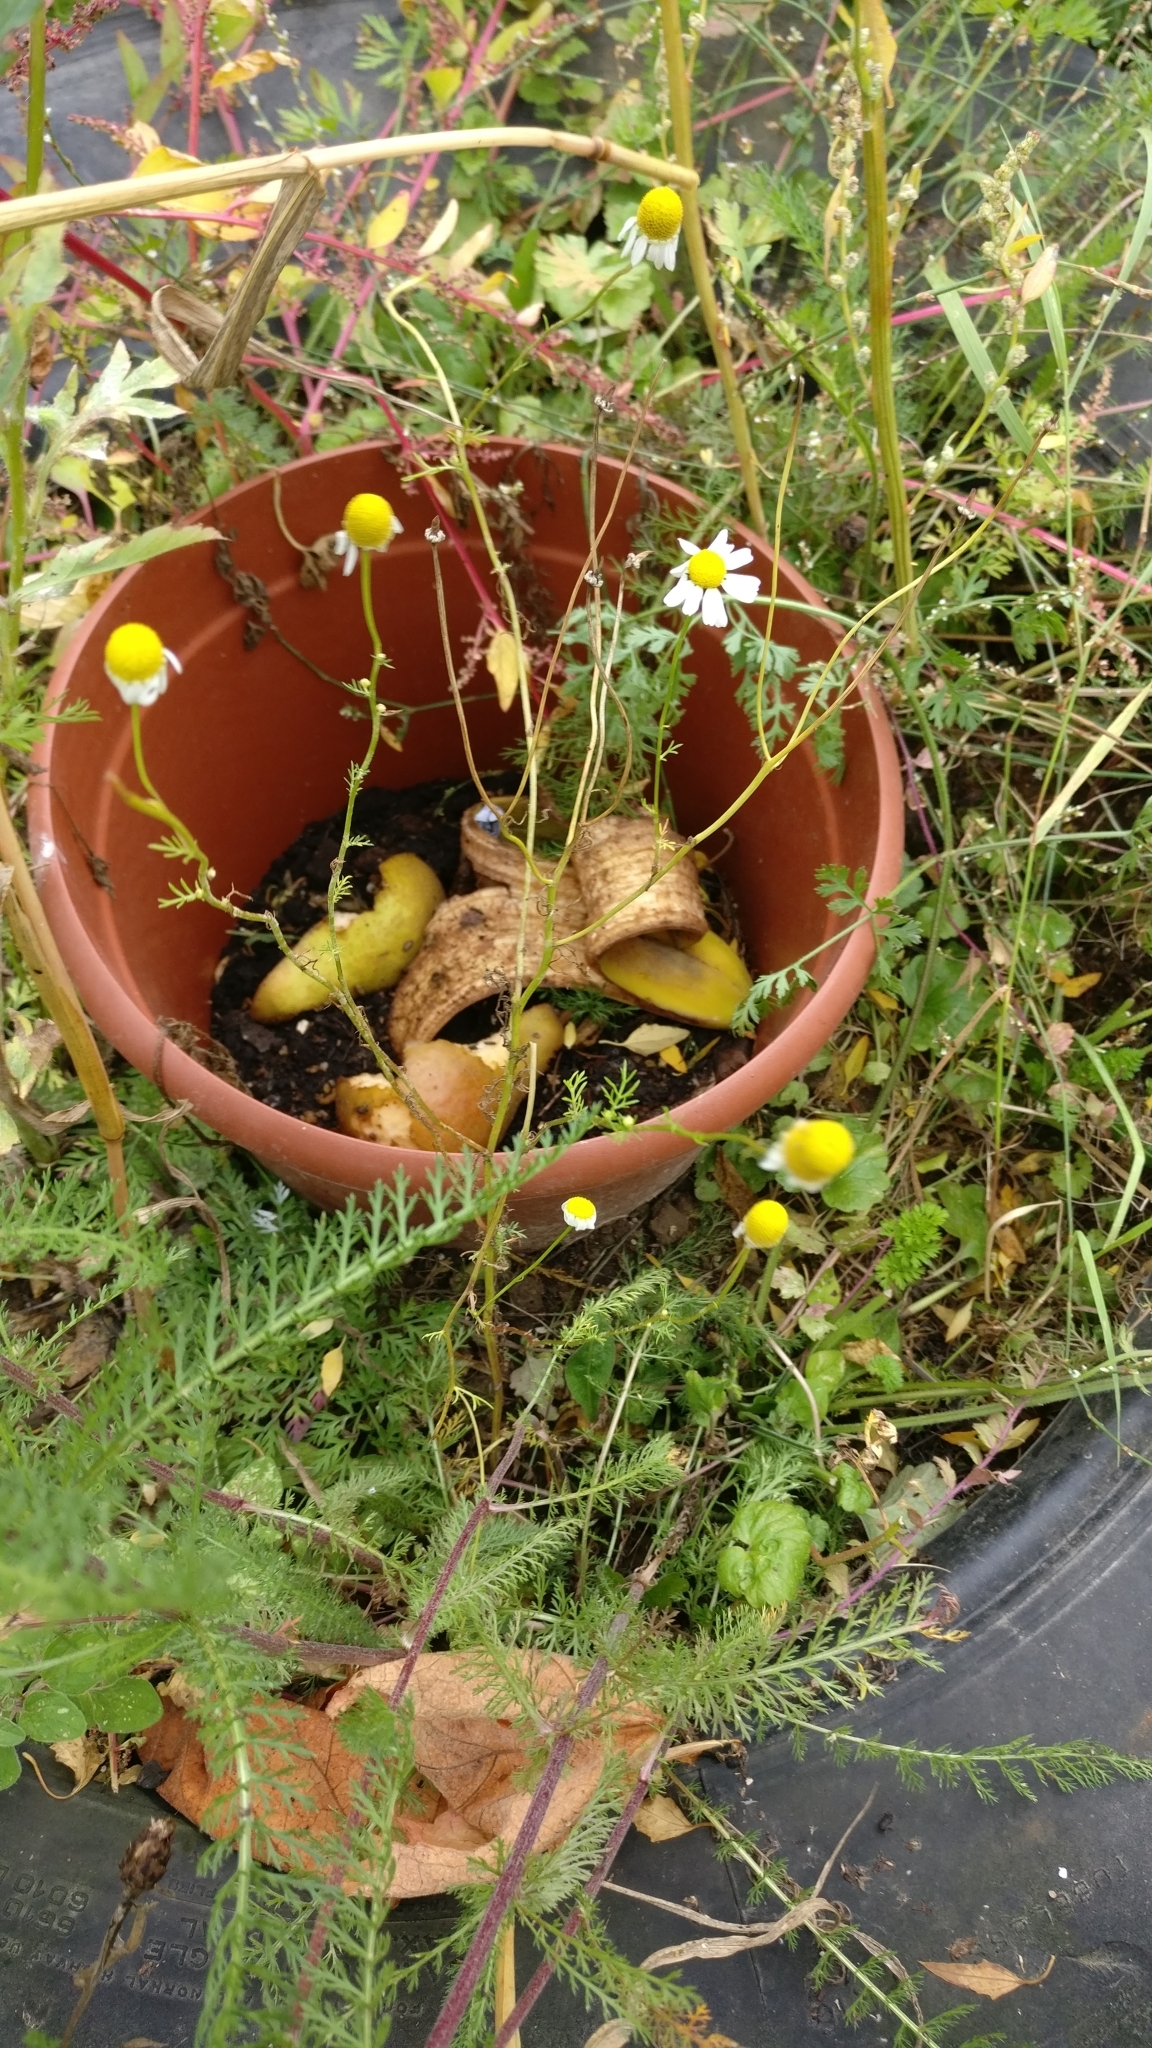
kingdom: Plantae
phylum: Tracheophyta
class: Magnoliopsida
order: Asterales
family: Asteraceae
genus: Matricaria
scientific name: Matricaria chamomilla
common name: Scented mayweed
